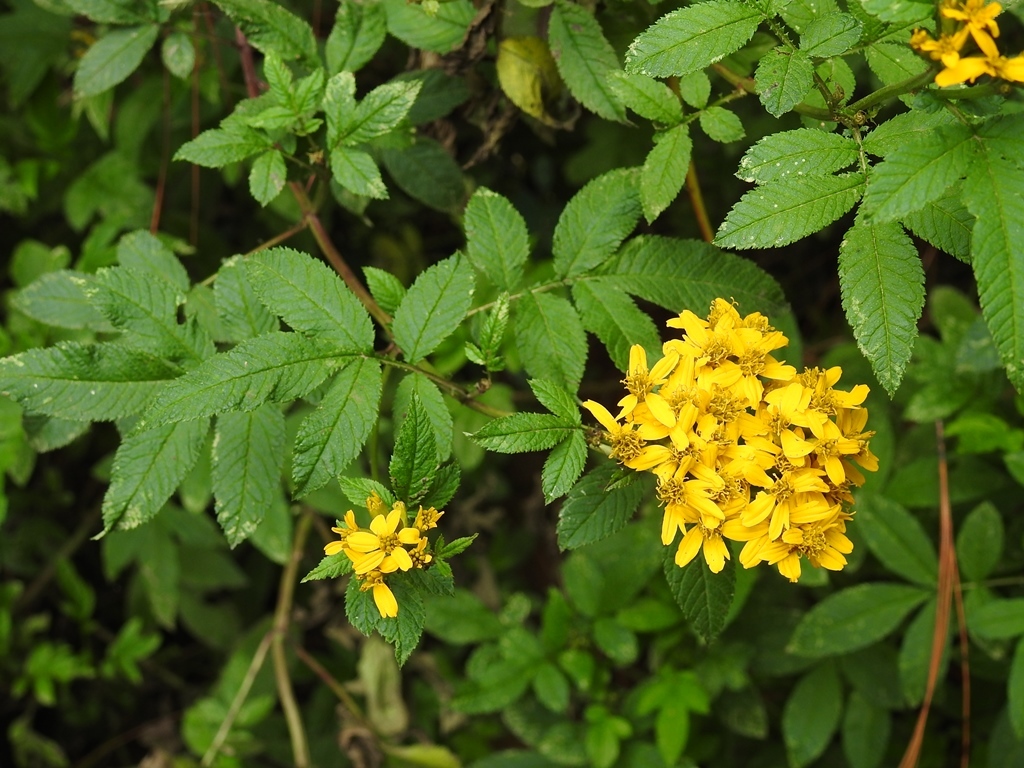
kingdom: Plantae
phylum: Tracheophyta
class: Magnoliopsida
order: Asterales
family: Asteraceae
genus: Tagetes
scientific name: Tagetes nelsonii
